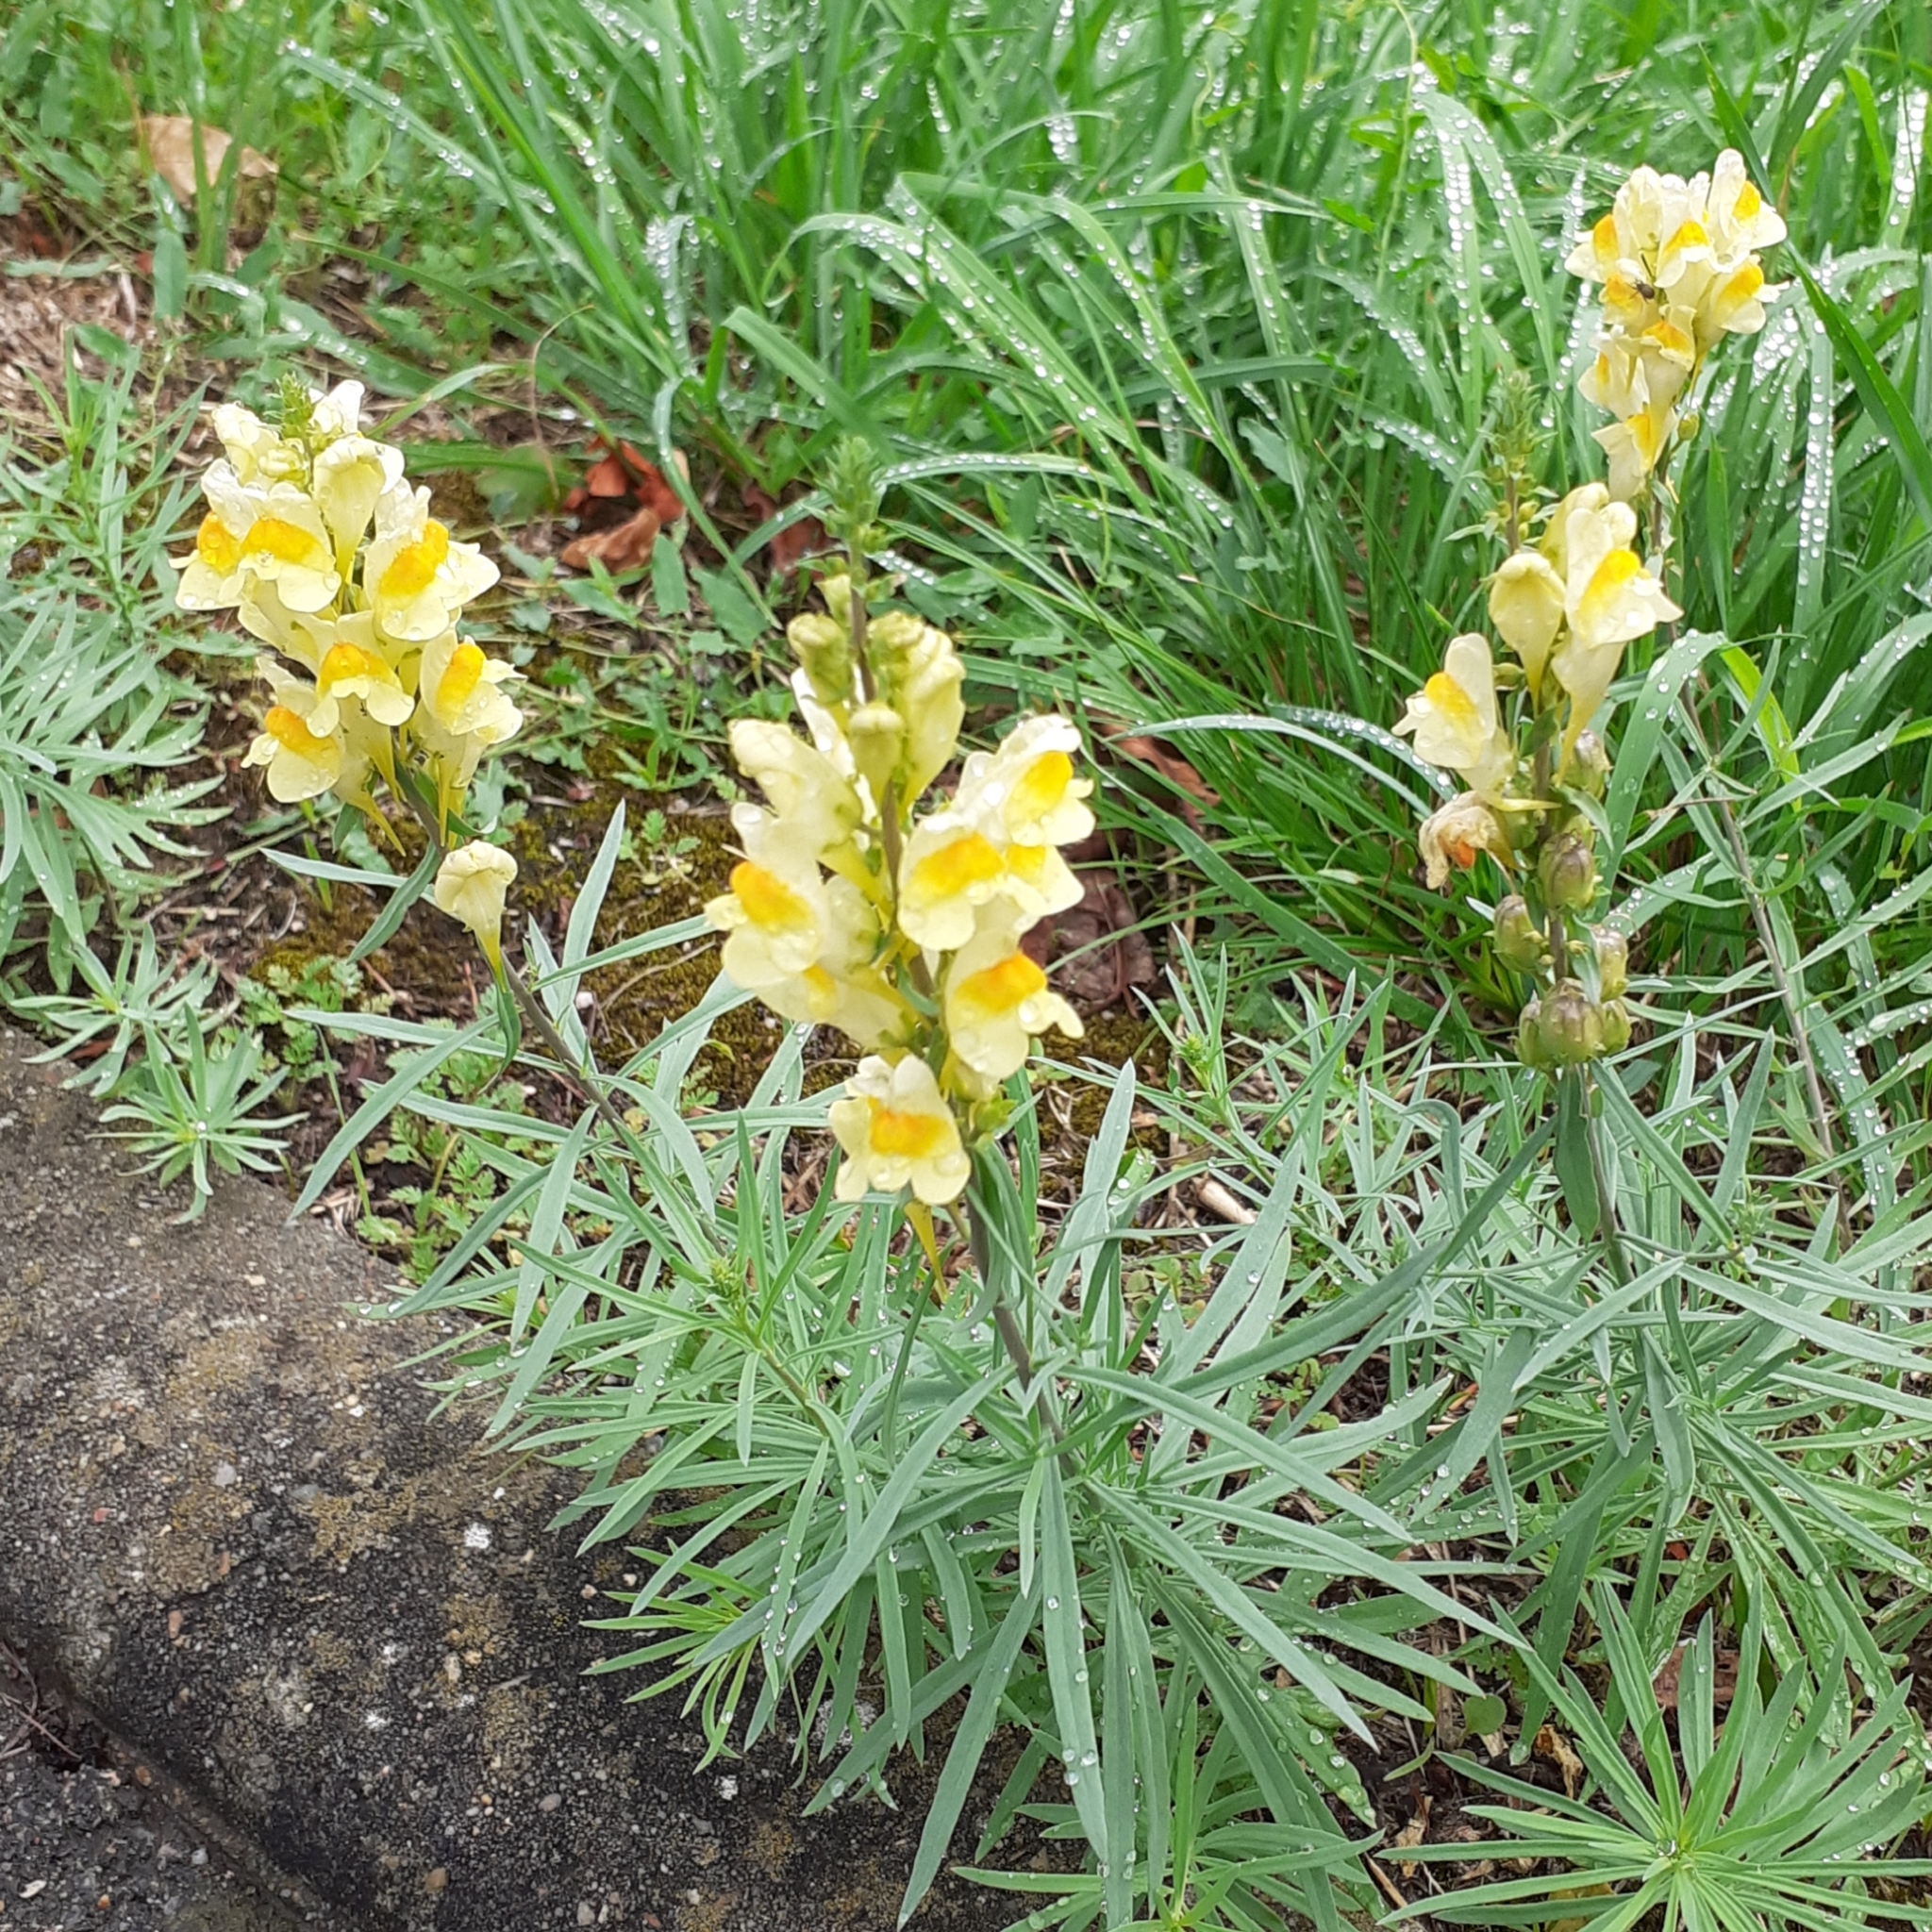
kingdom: Plantae
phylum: Tracheophyta
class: Magnoliopsida
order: Lamiales
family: Plantaginaceae
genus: Linaria
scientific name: Linaria vulgaris
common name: Butter and eggs
